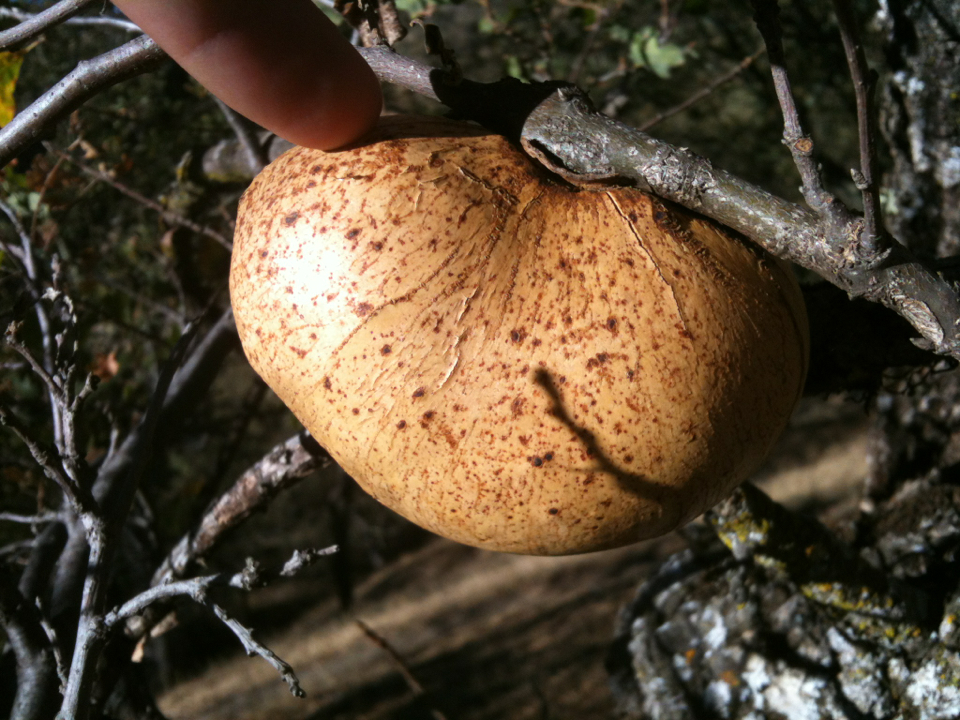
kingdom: Animalia
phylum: Arthropoda
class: Insecta
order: Hymenoptera
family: Cynipidae
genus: Andricus
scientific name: Andricus quercuscalifornicus
